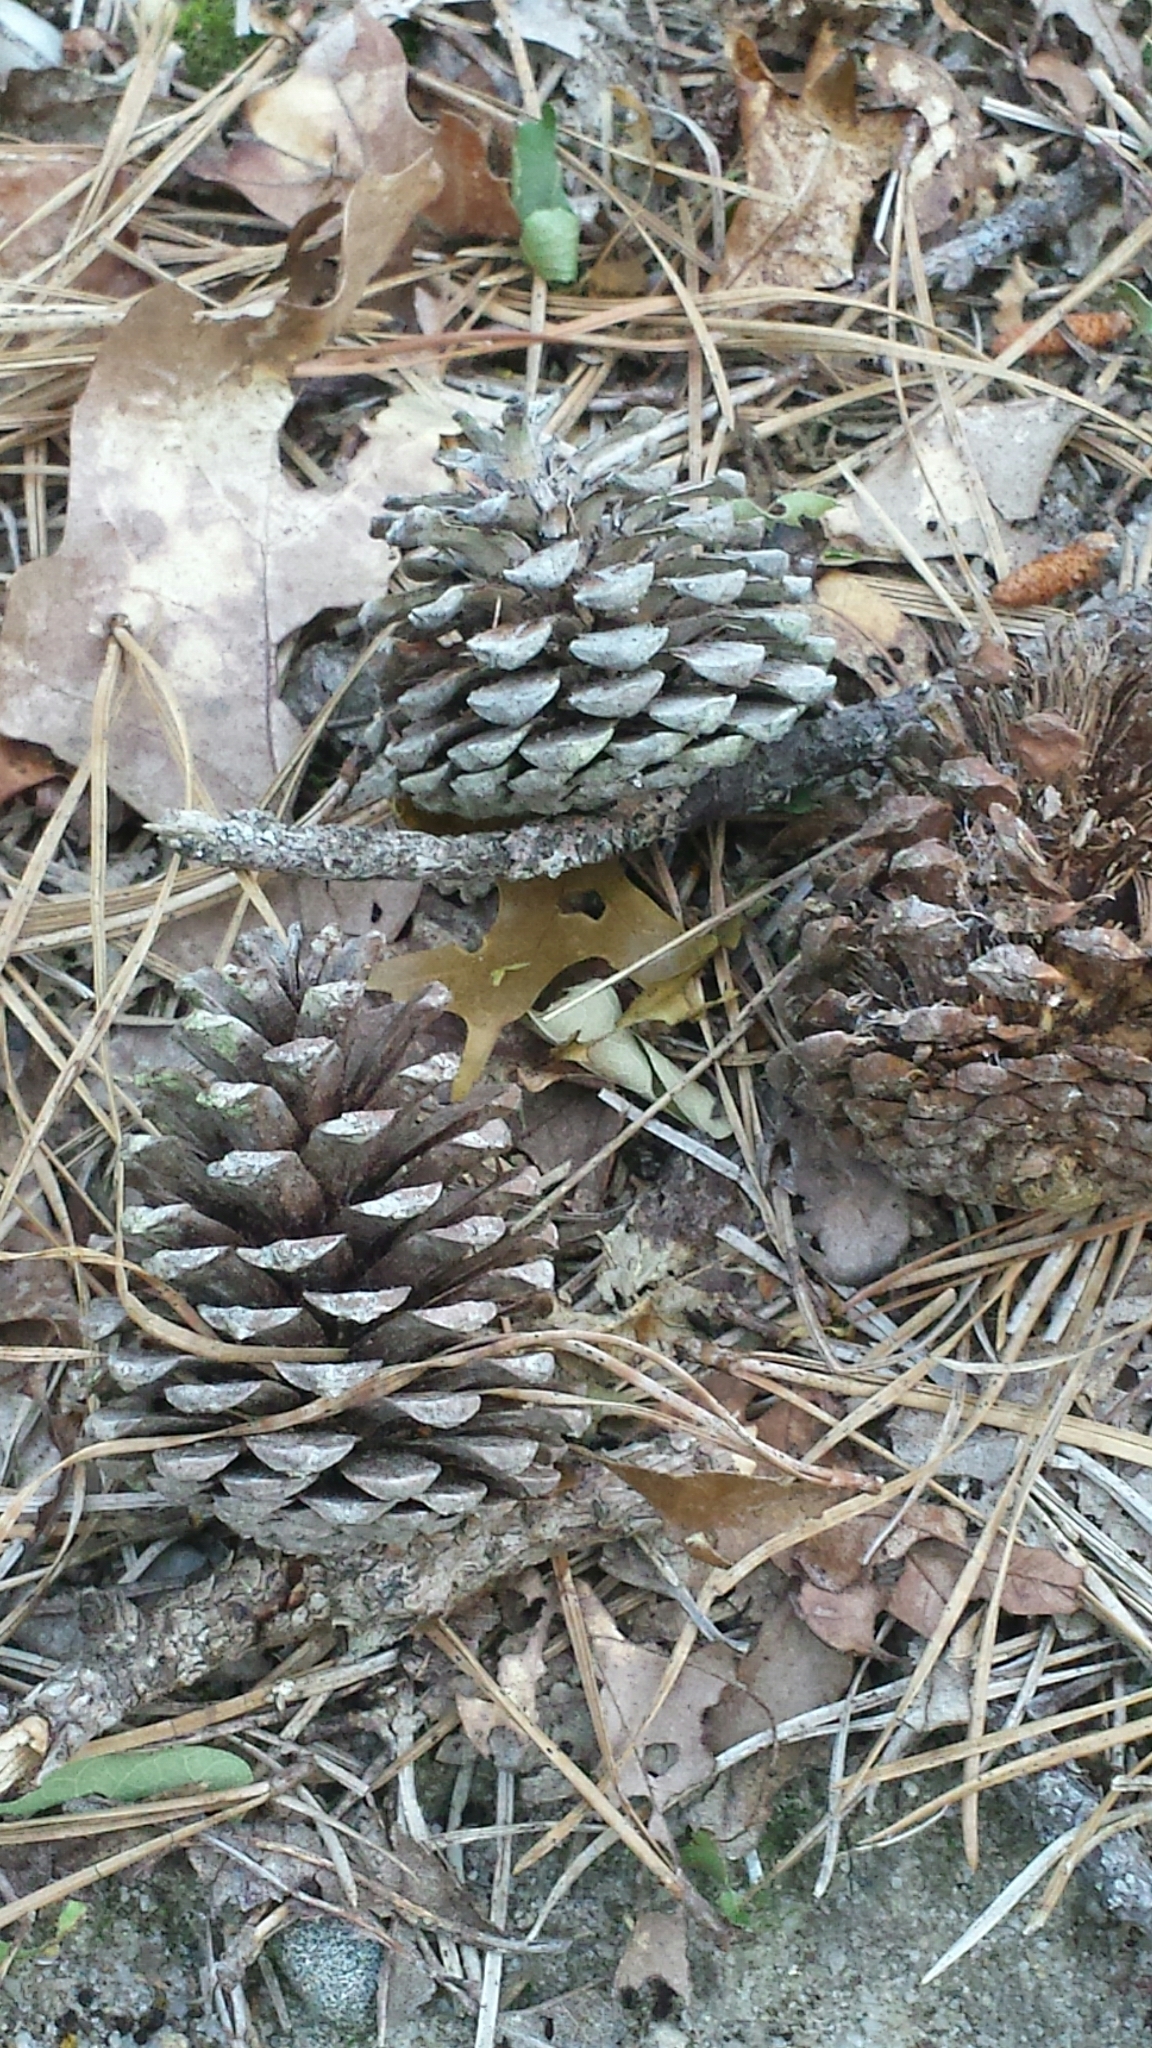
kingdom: Plantae
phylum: Tracheophyta
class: Pinopsida
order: Pinales
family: Pinaceae
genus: Pinus
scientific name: Pinus rigida
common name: Pitch pine
